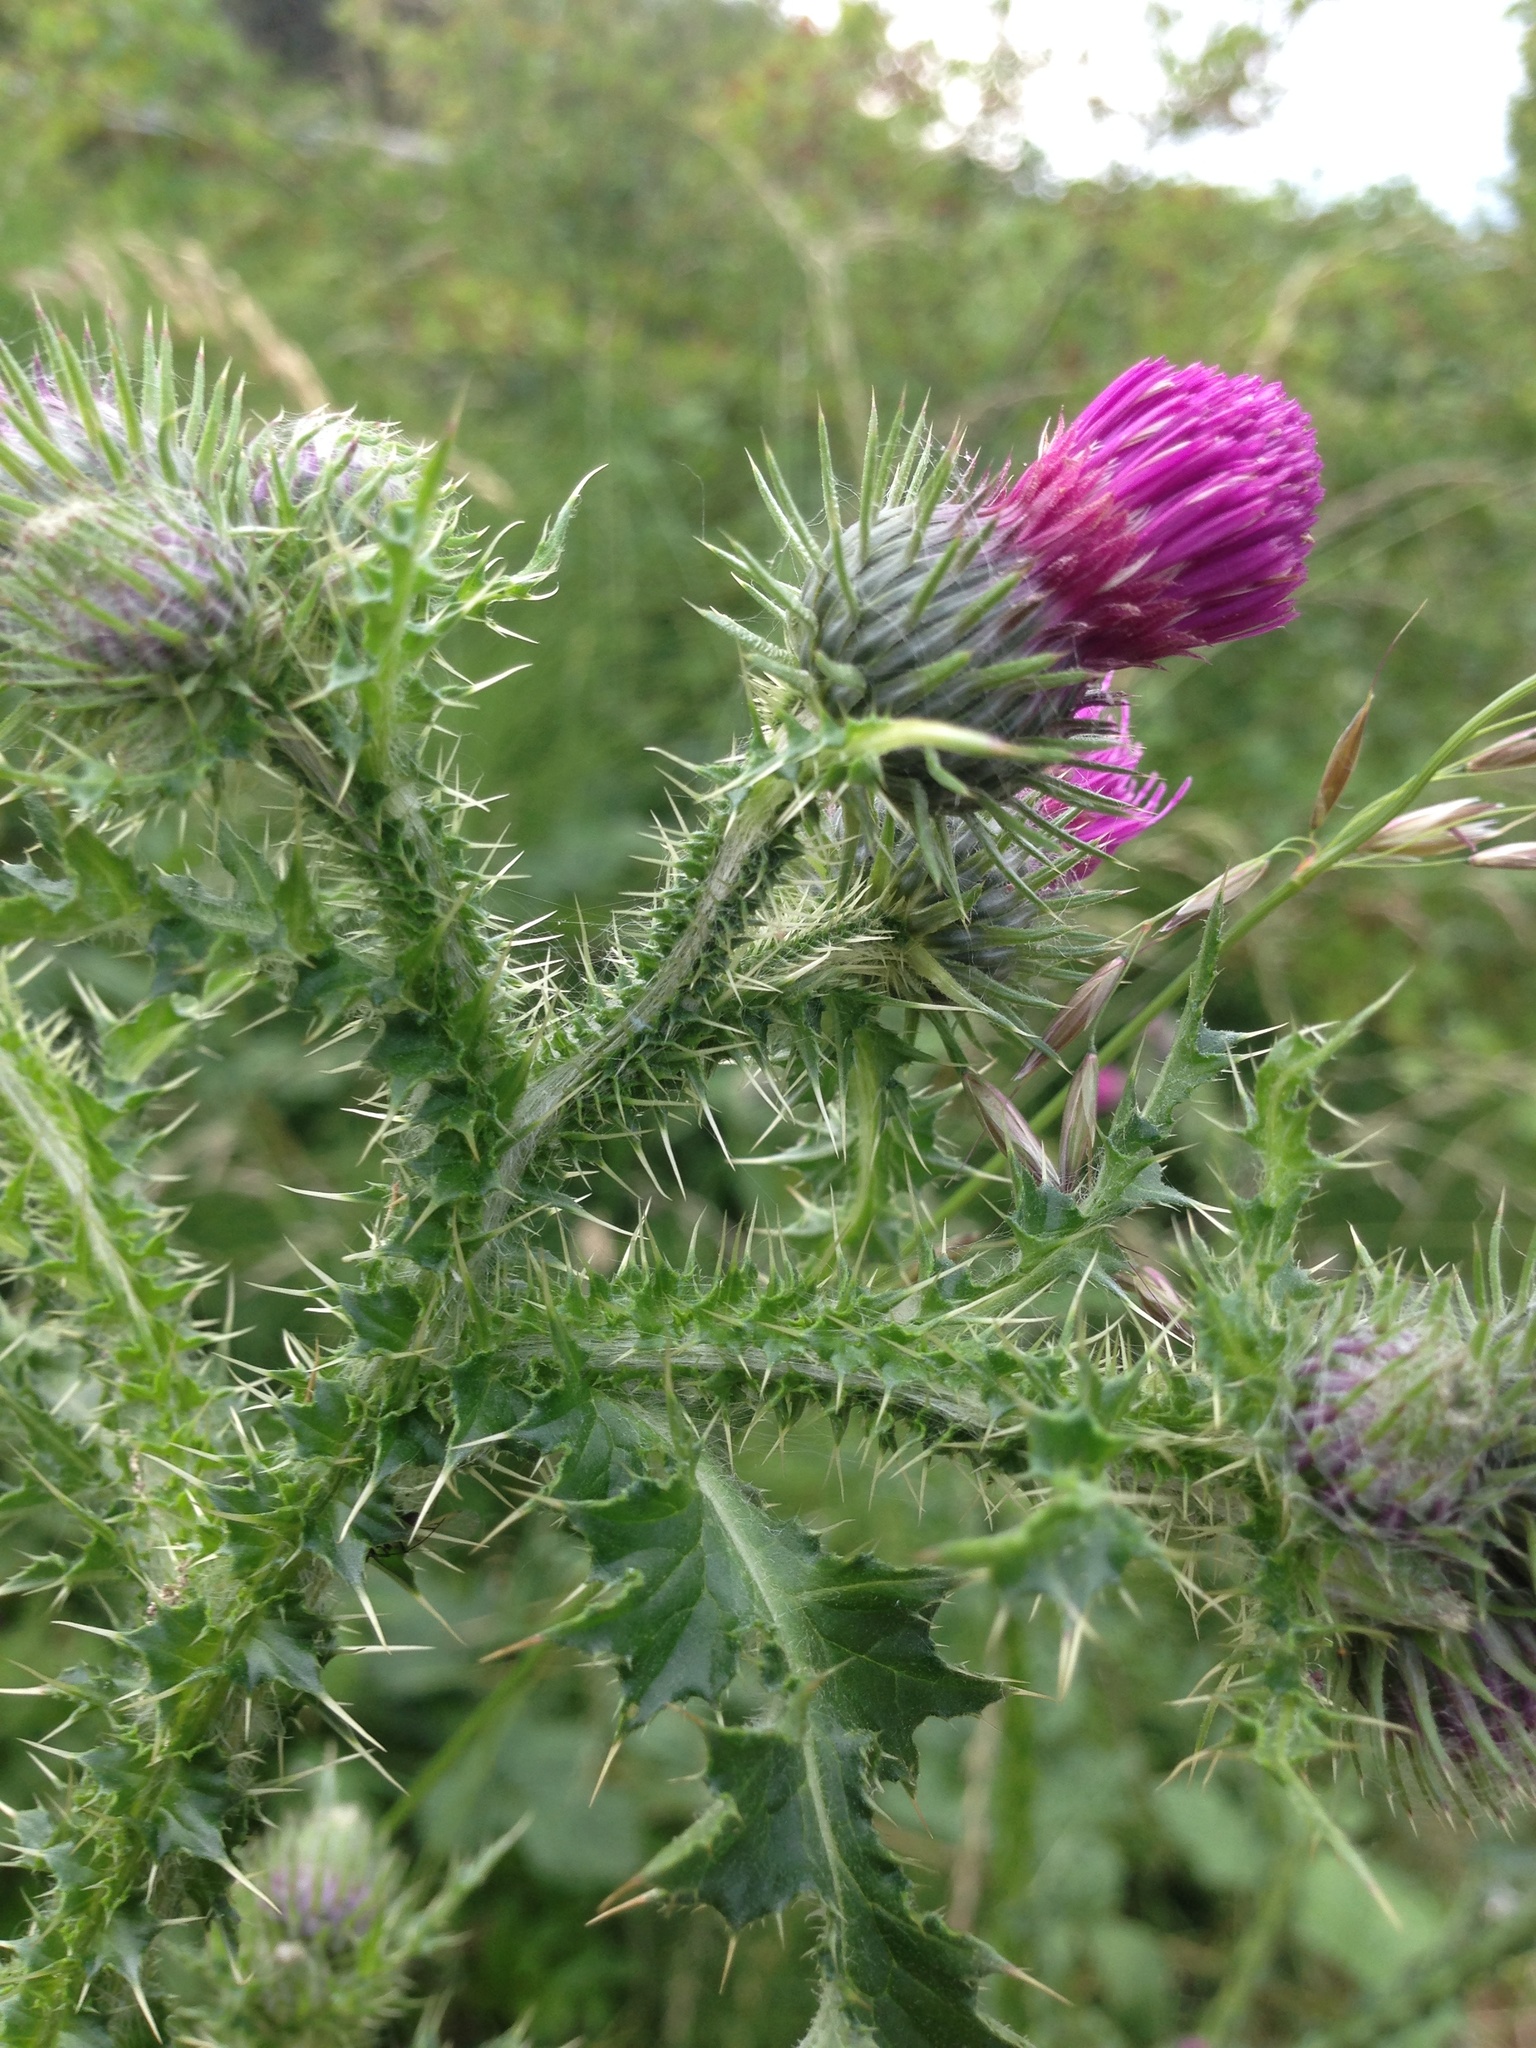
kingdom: Plantae
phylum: Tracheophyta
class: Magnoliopsida
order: Asterales
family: Asteraceae
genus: Carduus
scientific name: Carduus crispus
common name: Welted thistle
